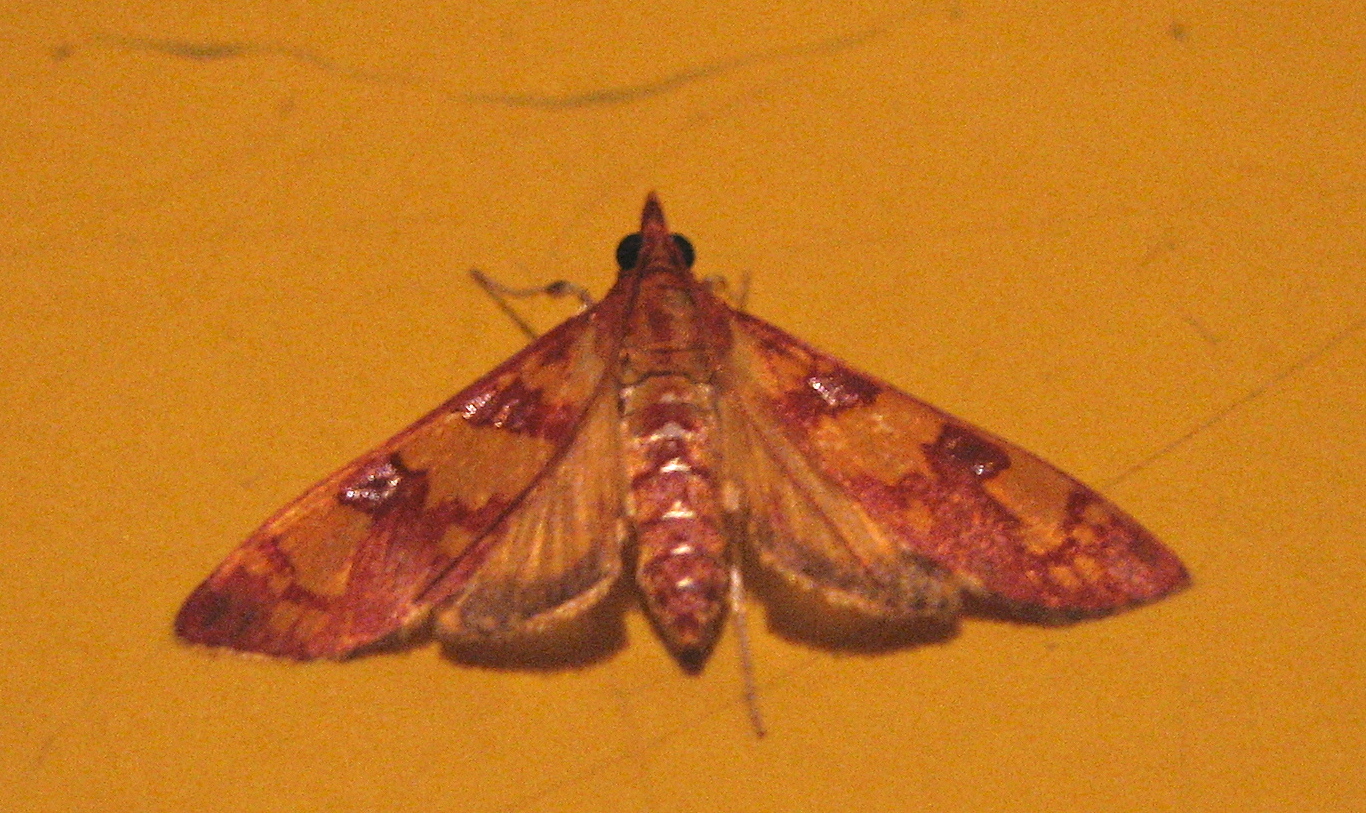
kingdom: Animalia
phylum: Arthropoda
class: Insecta
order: Lepidoptera
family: Crambidae
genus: Ischnurges
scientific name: Ischnurges Stenochora lancinalis
